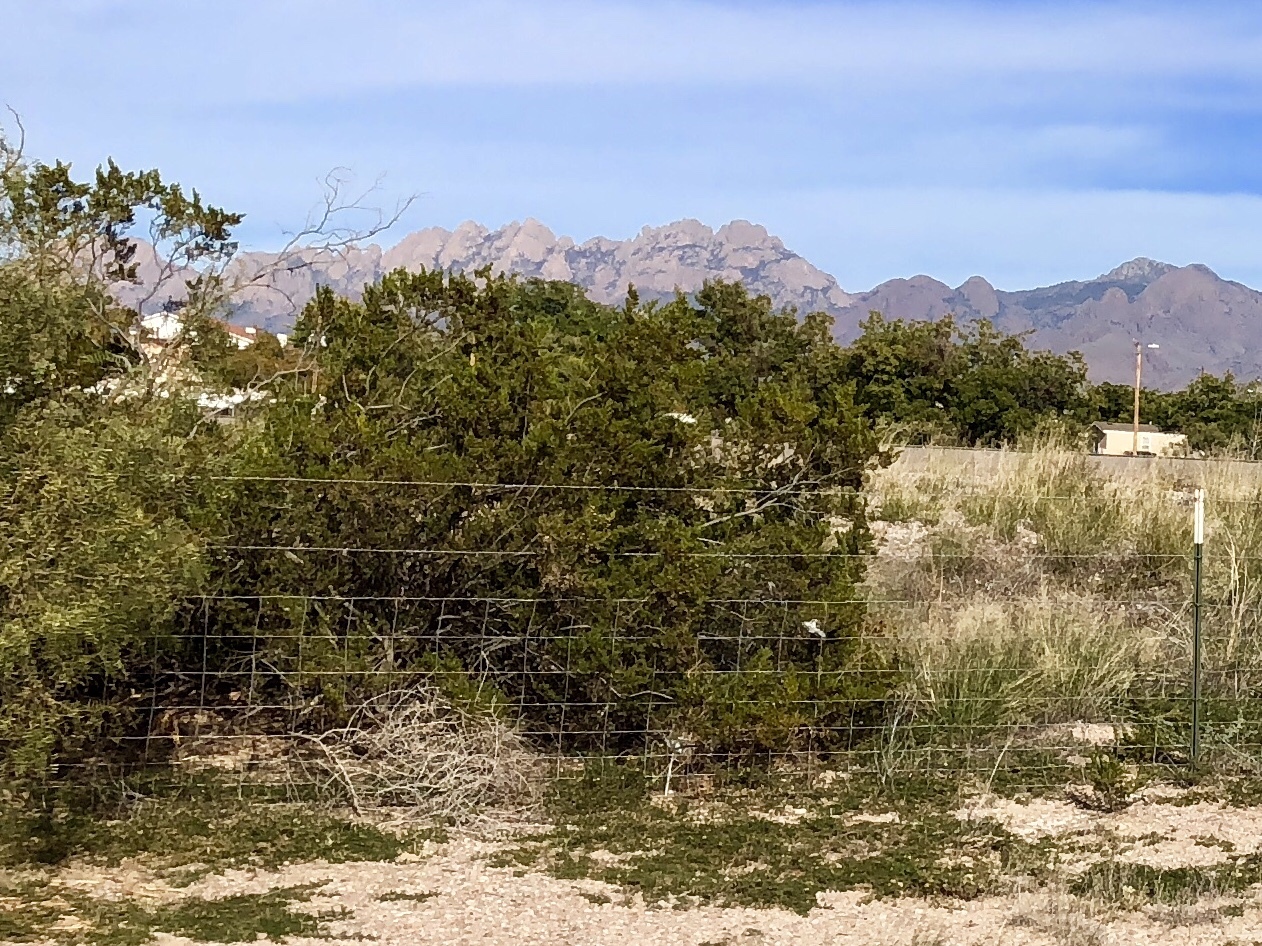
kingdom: Plantae
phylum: Tracheophyta
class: Magnoliopsida
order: Zygophyllales
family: Zygophyllaceae
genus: Larrea
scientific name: Larrea tridentata
